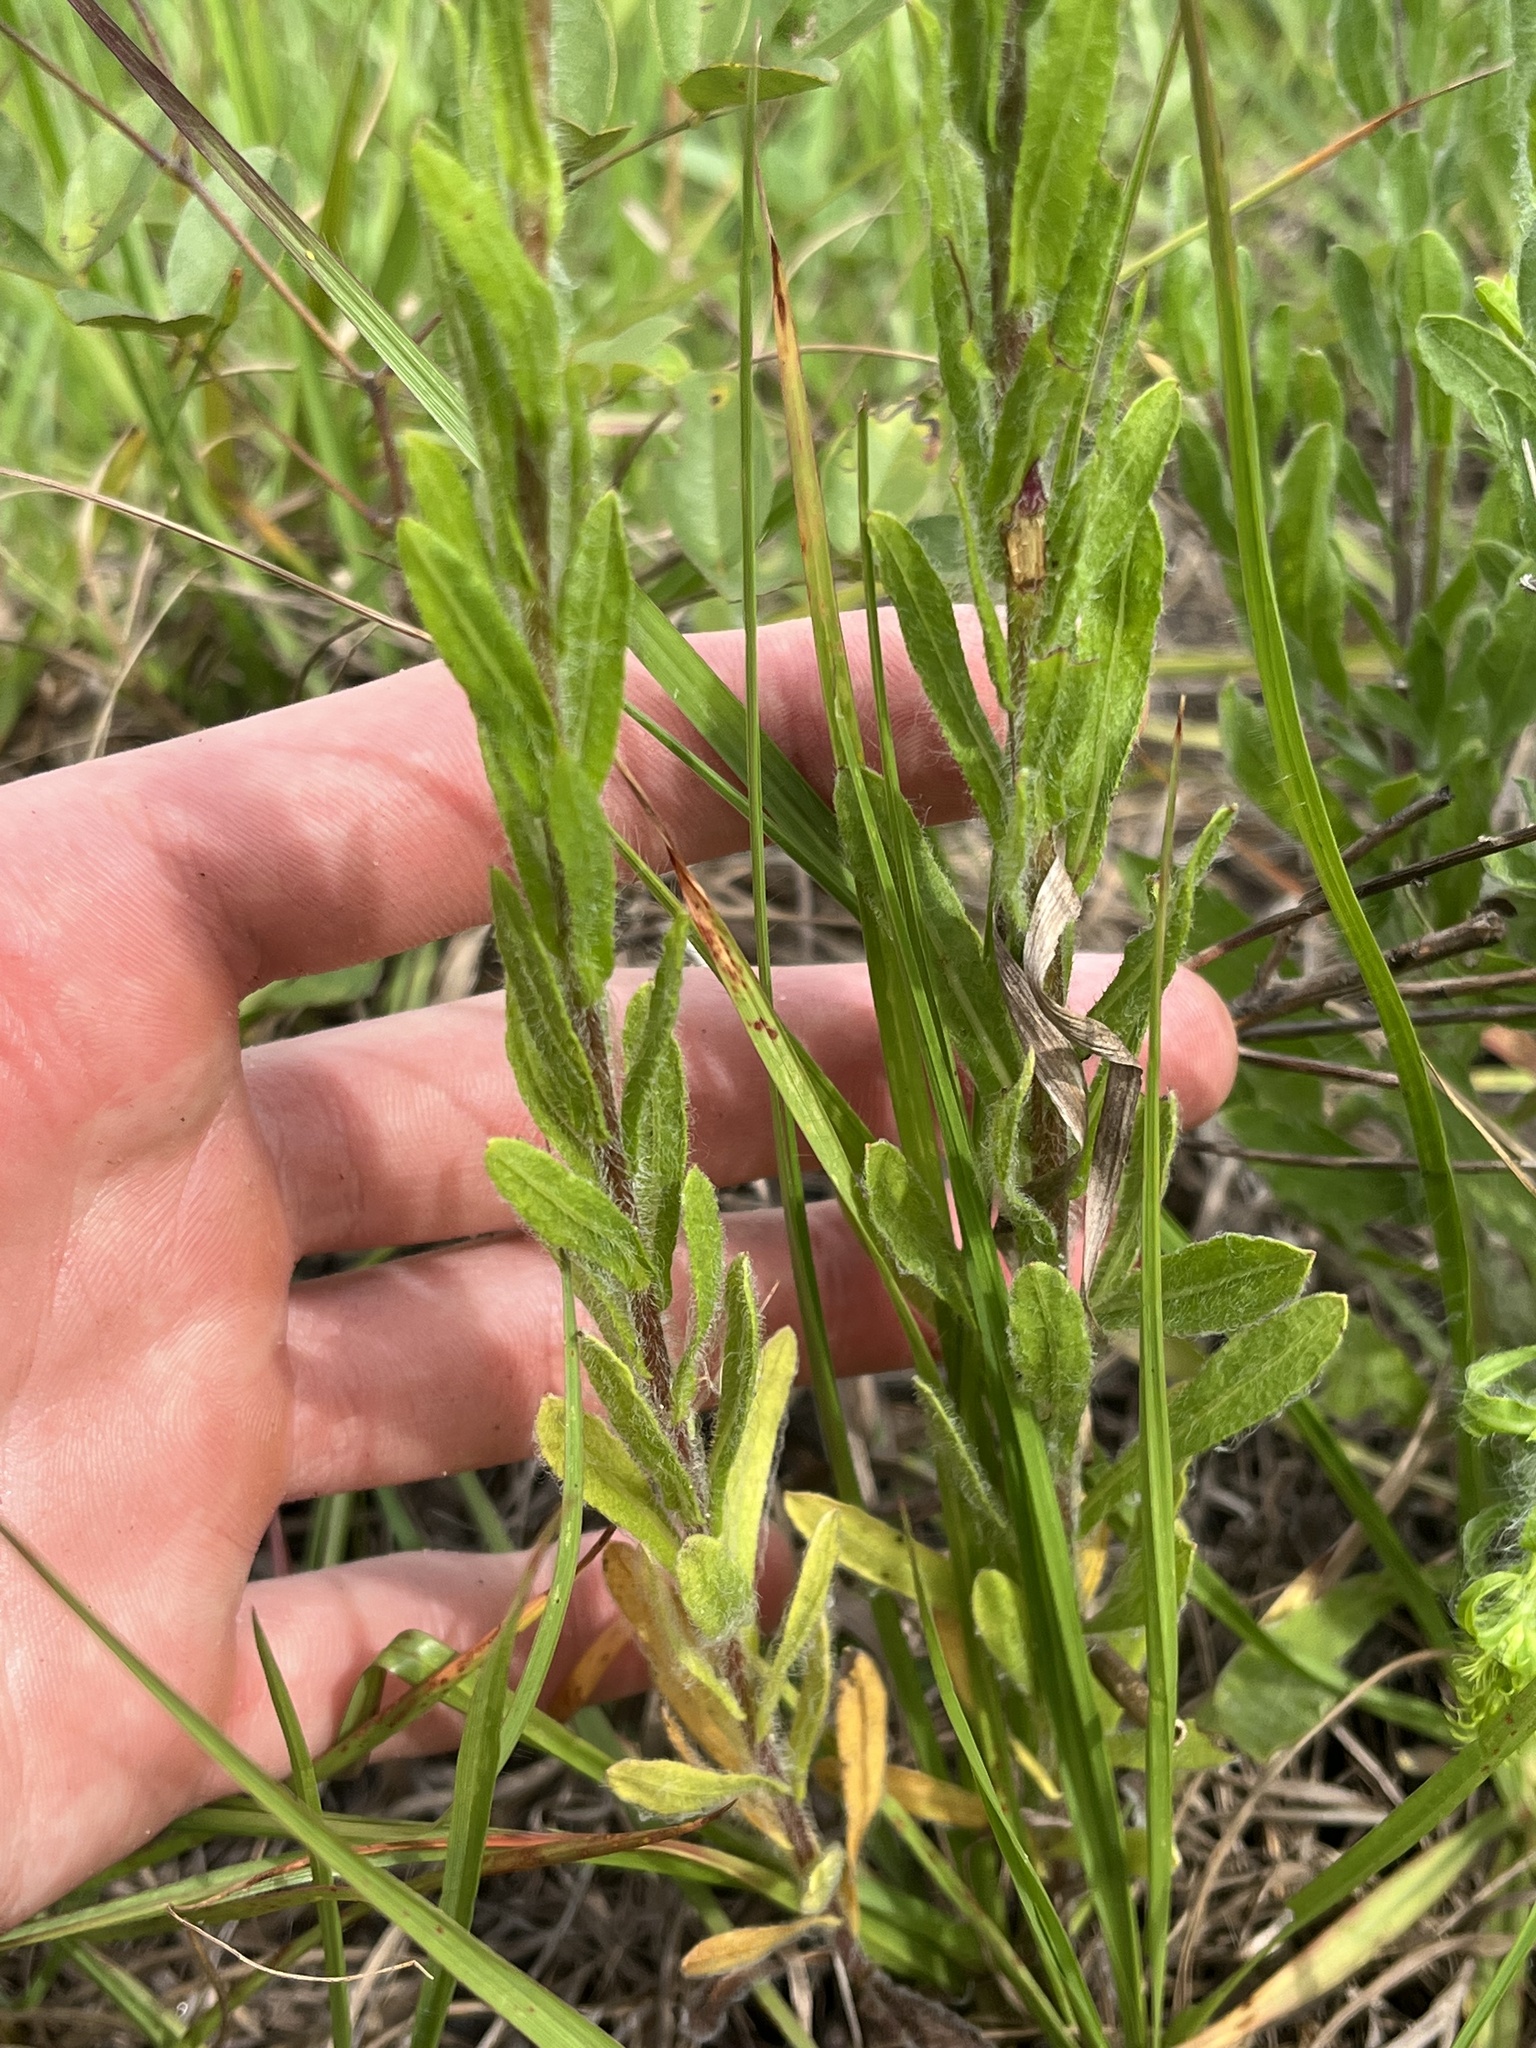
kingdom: Plantae
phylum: Tracheophyta
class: Magnoliopsida
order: Asterales
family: Asteraceae
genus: Chrysopsis
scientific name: Chrysopsis subulata
